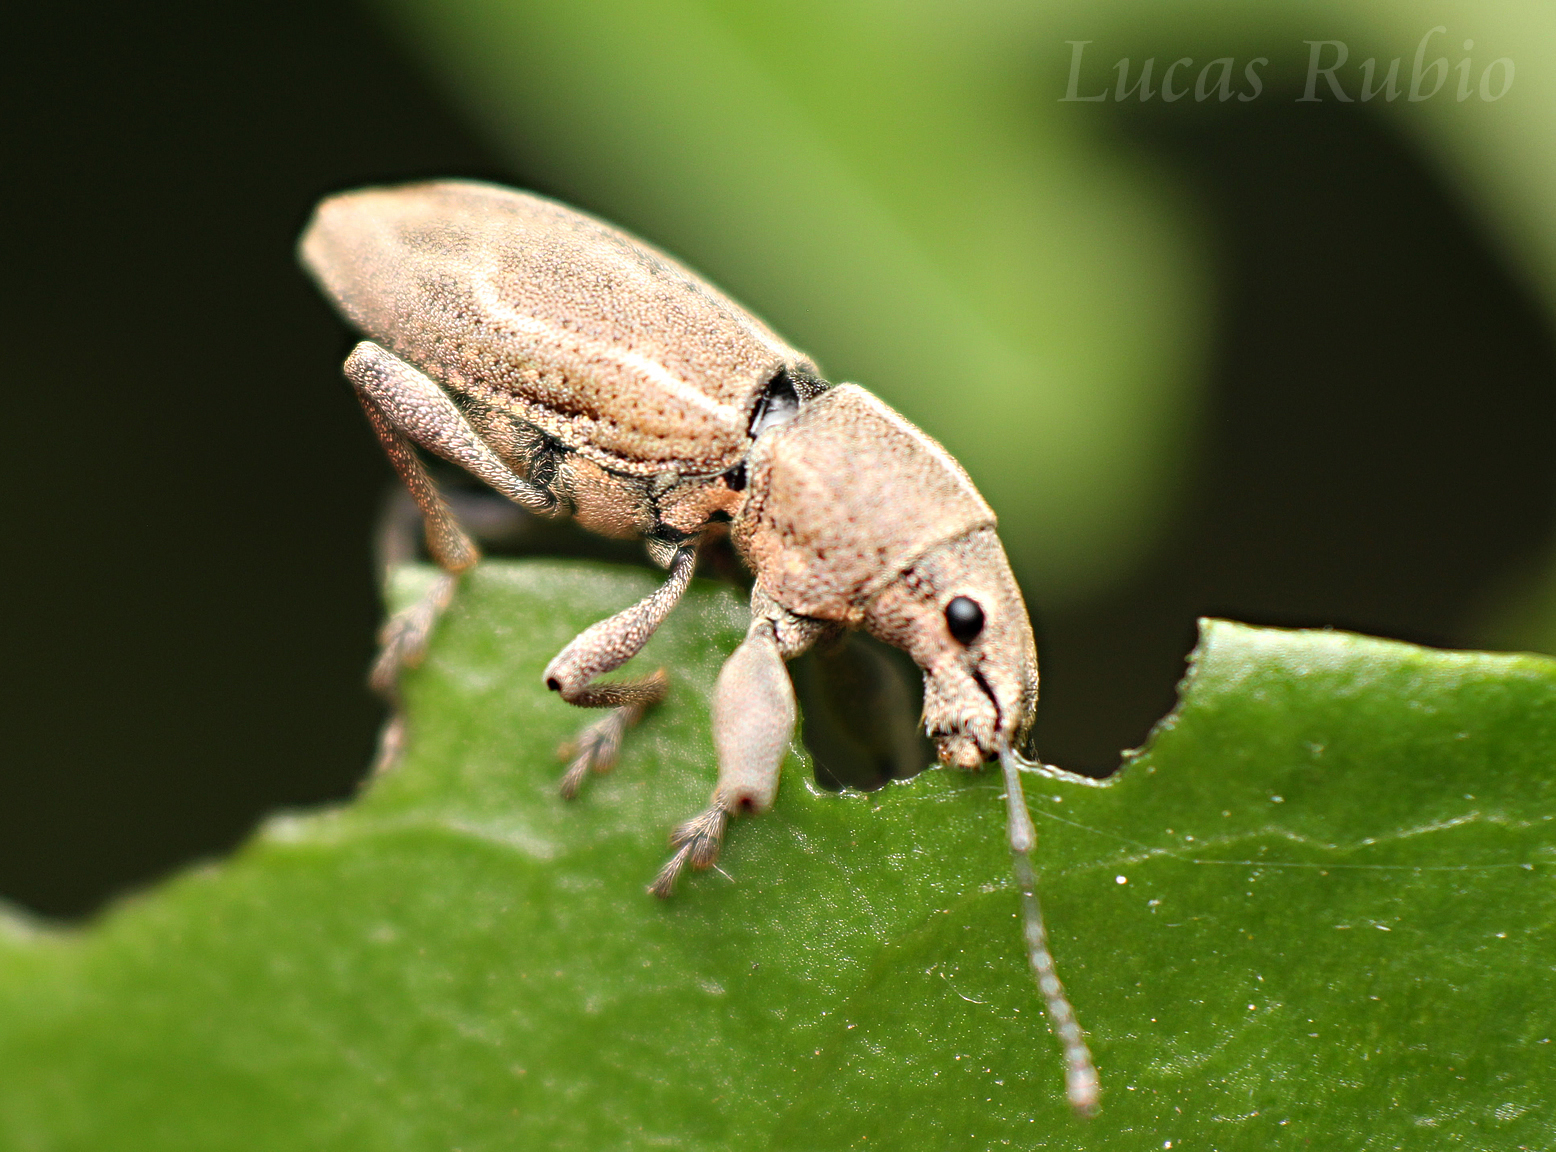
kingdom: Animalia
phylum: Arthropoda
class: Insecta
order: Coleoptera
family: Curculionidae
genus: Naupactus
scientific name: Naupactus dissimulator
